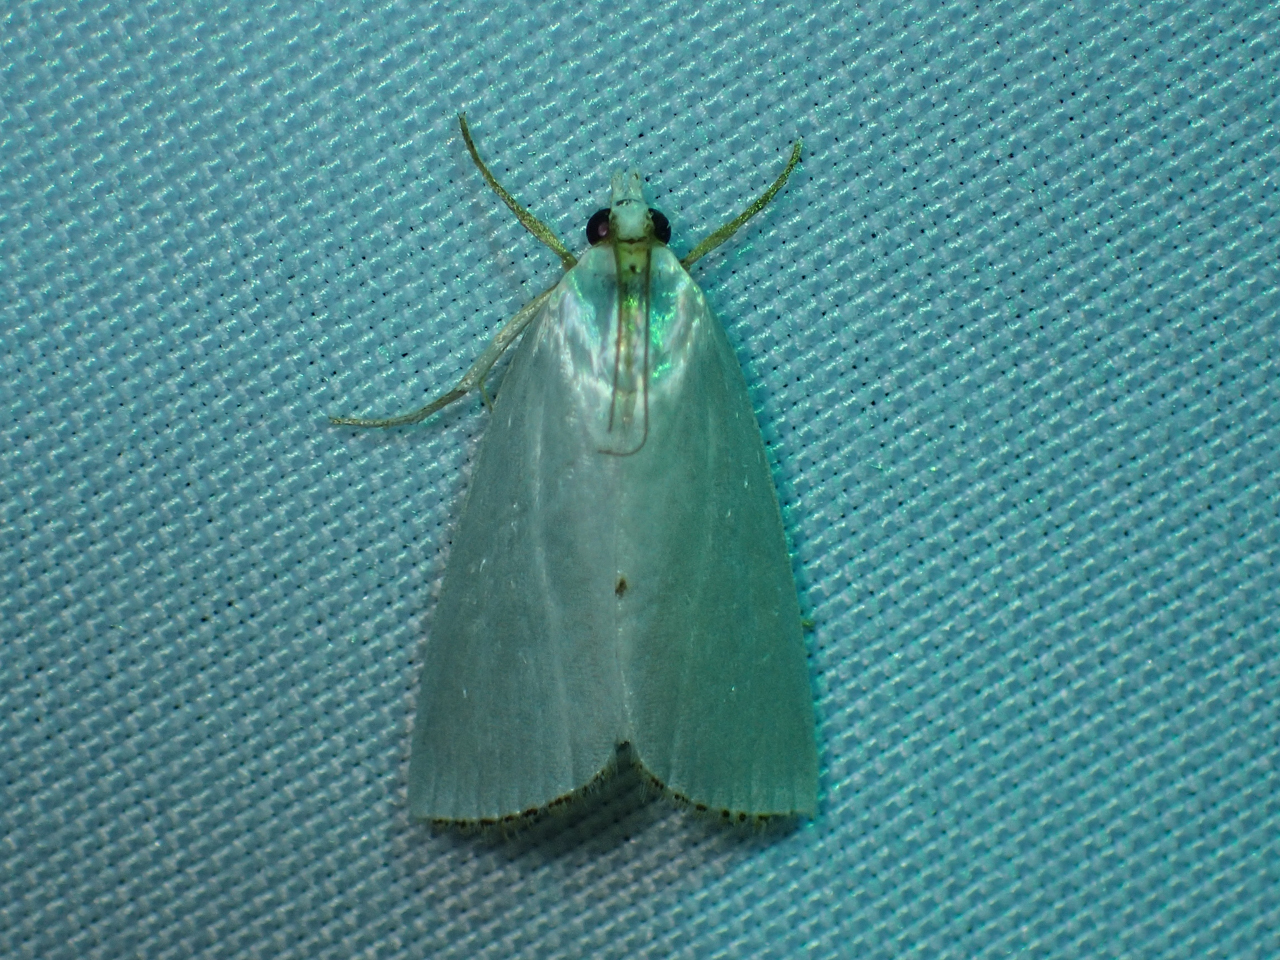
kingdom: Animalia
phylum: Arthropoda
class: Insecta
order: Lepidoptera
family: Crambidae
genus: Argyria
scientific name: Argyria nivalis
